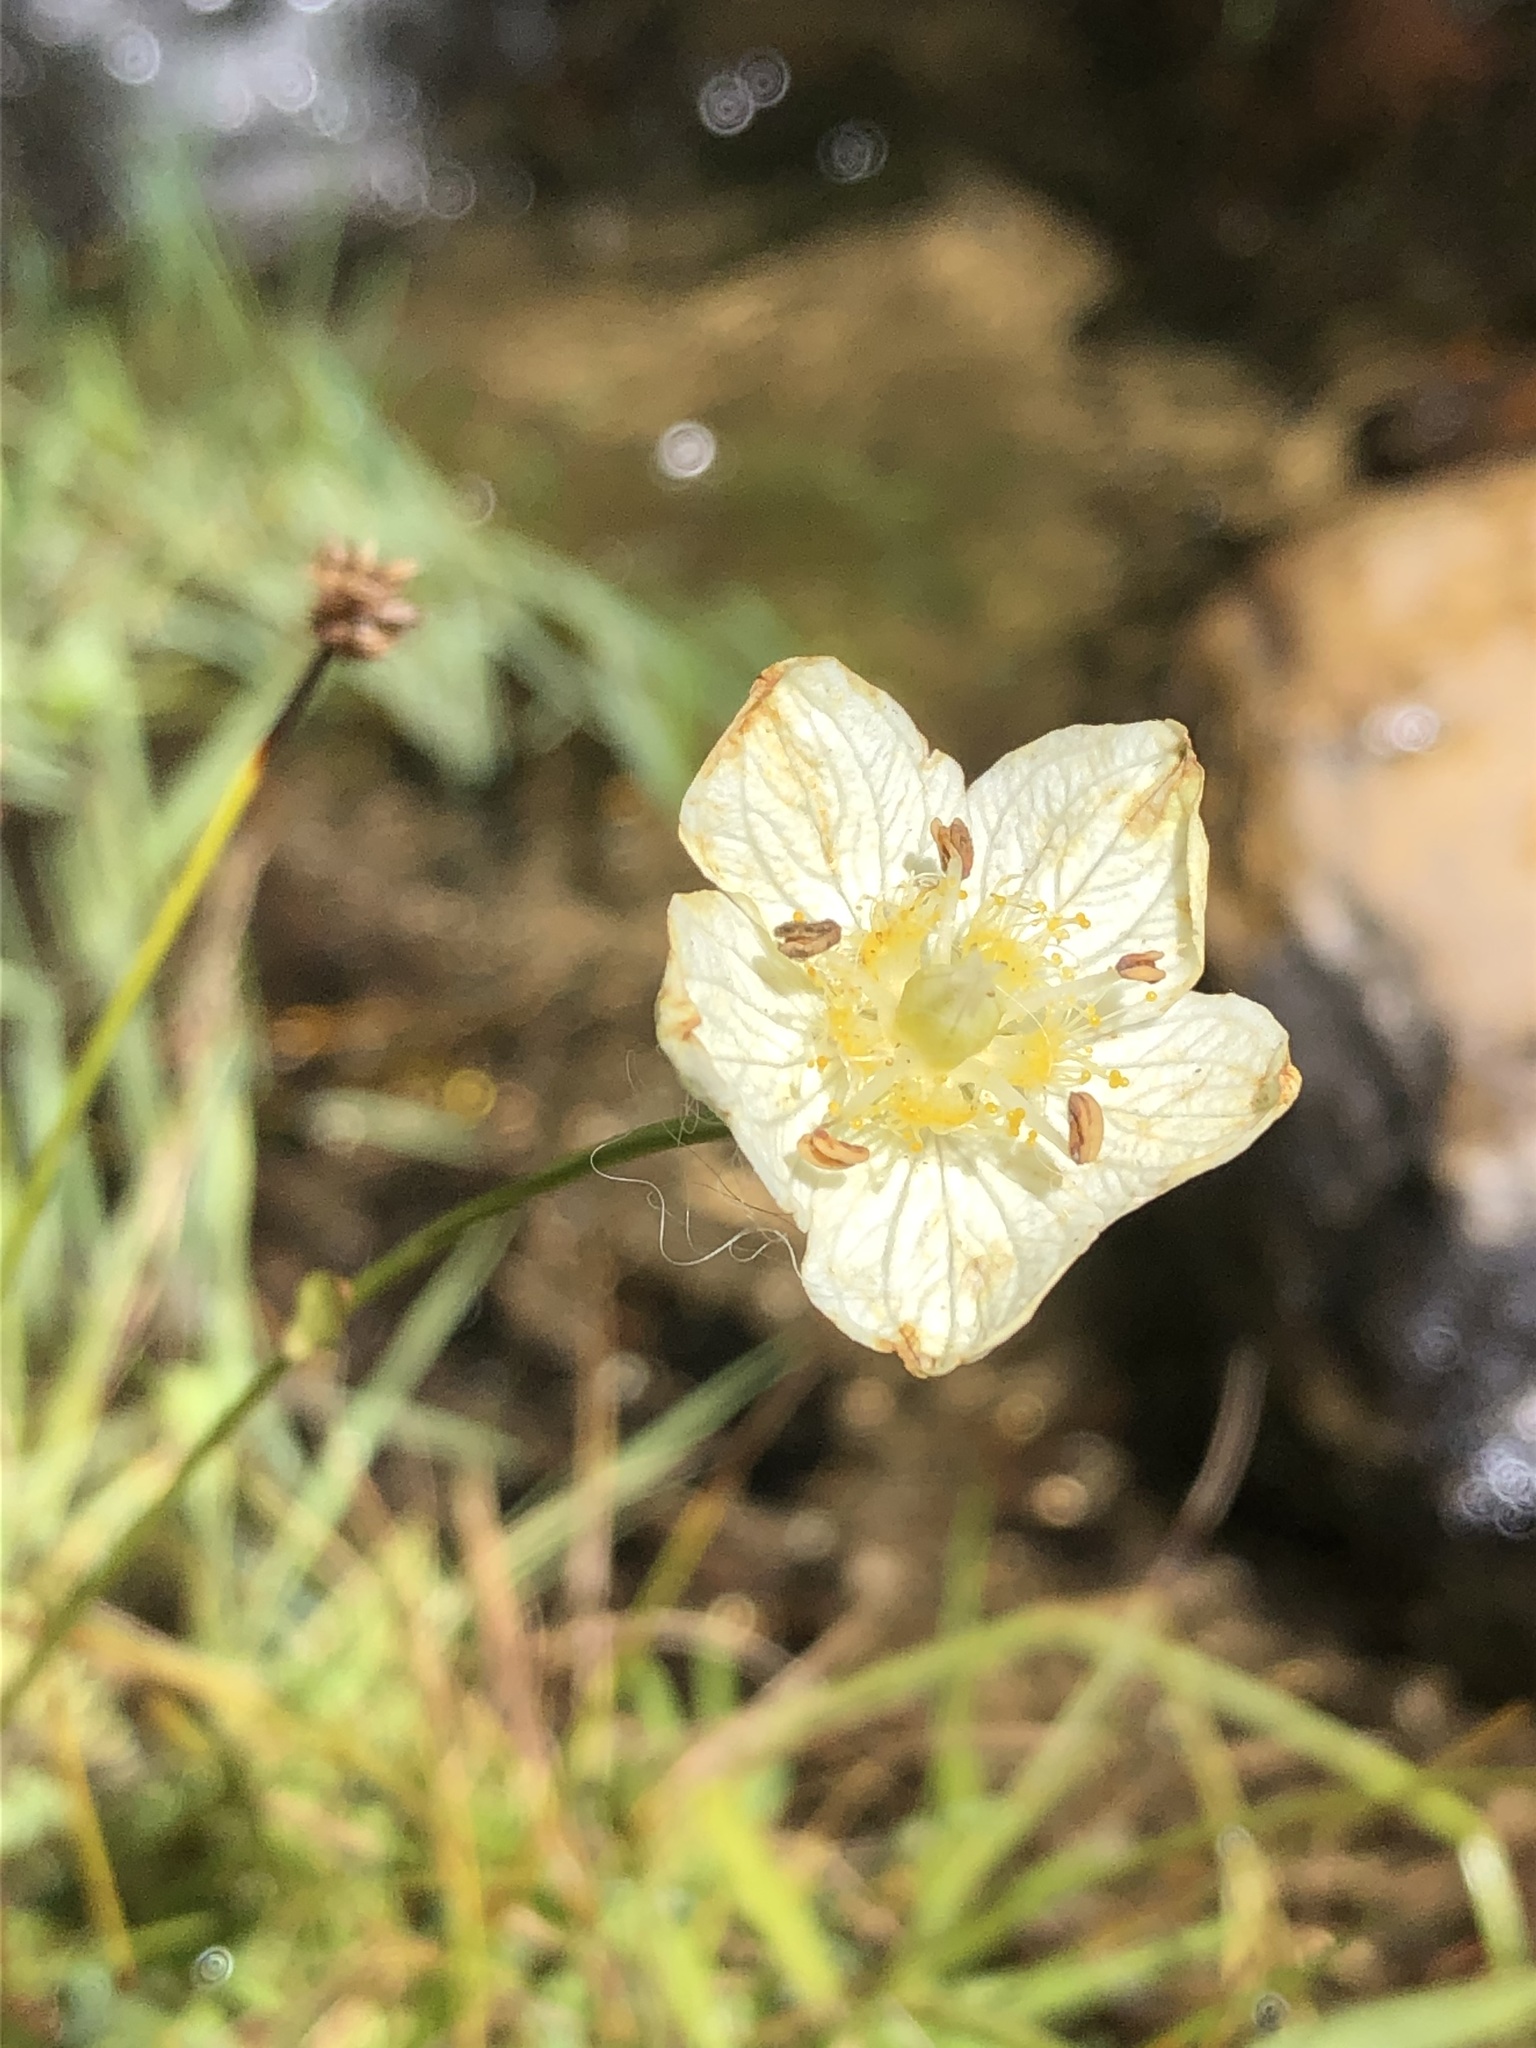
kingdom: Plantae
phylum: Tracheophyta
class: Magnoliopsida
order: Celastrales
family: Parnassiaceae
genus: Parnassia
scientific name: Parnassia palustris
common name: Grass-of-parnassus
